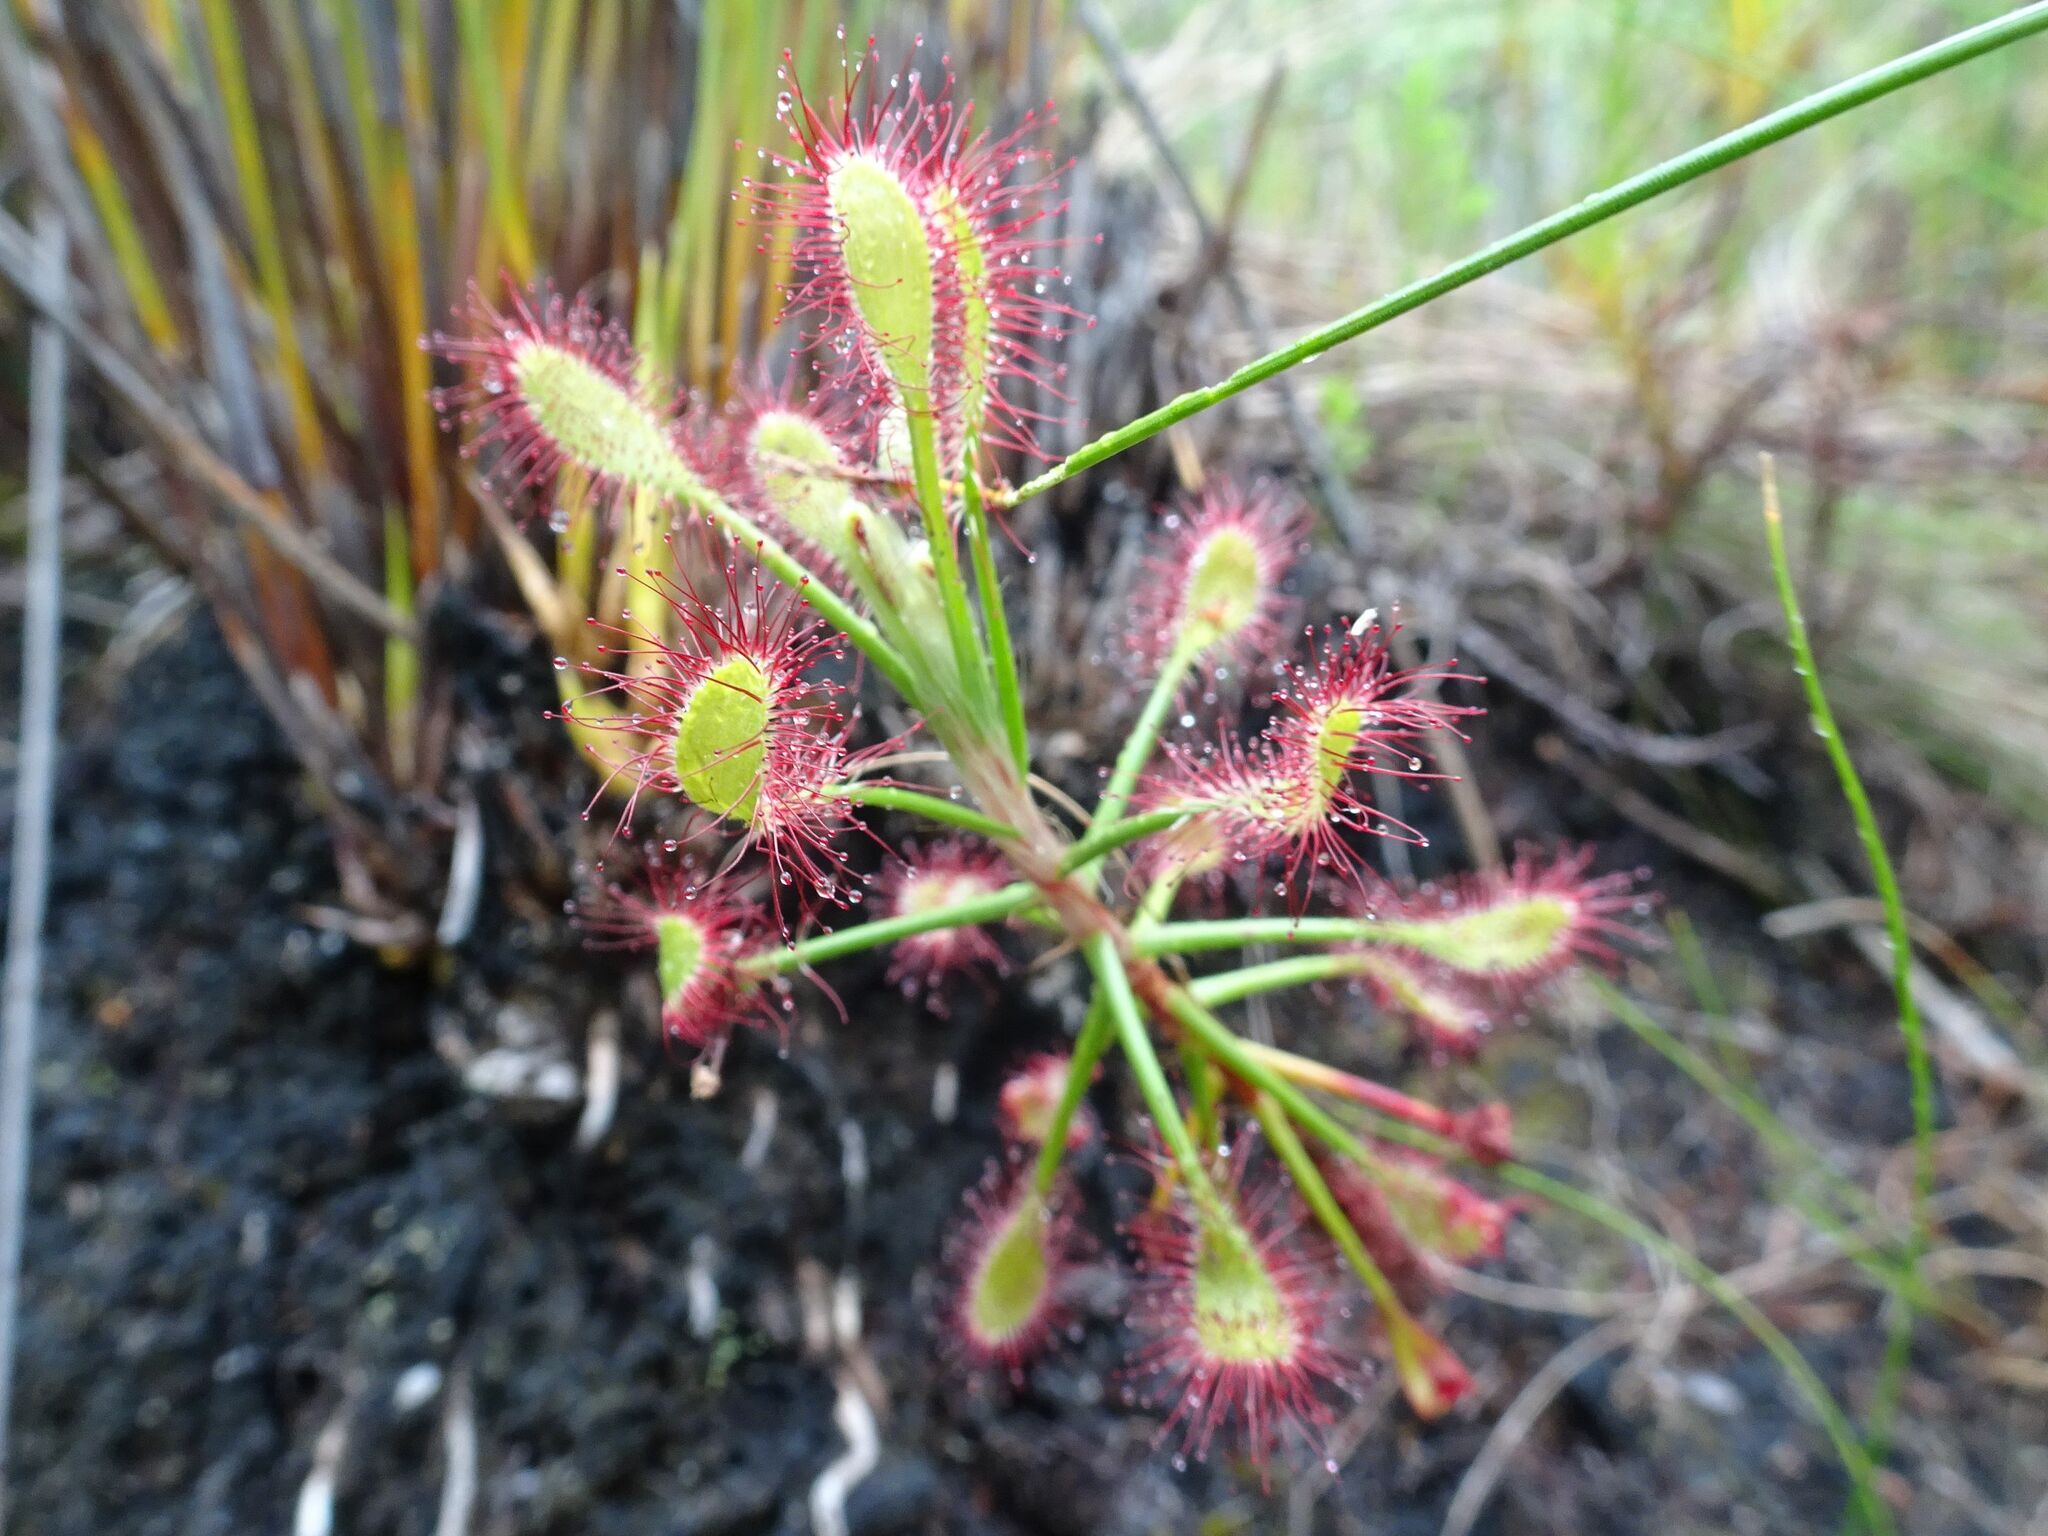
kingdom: Plantae
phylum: Tracheophyta
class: Magnoliopsida
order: Caryophyllales
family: Droseraceae
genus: Drosera
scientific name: Drosera glabripes
